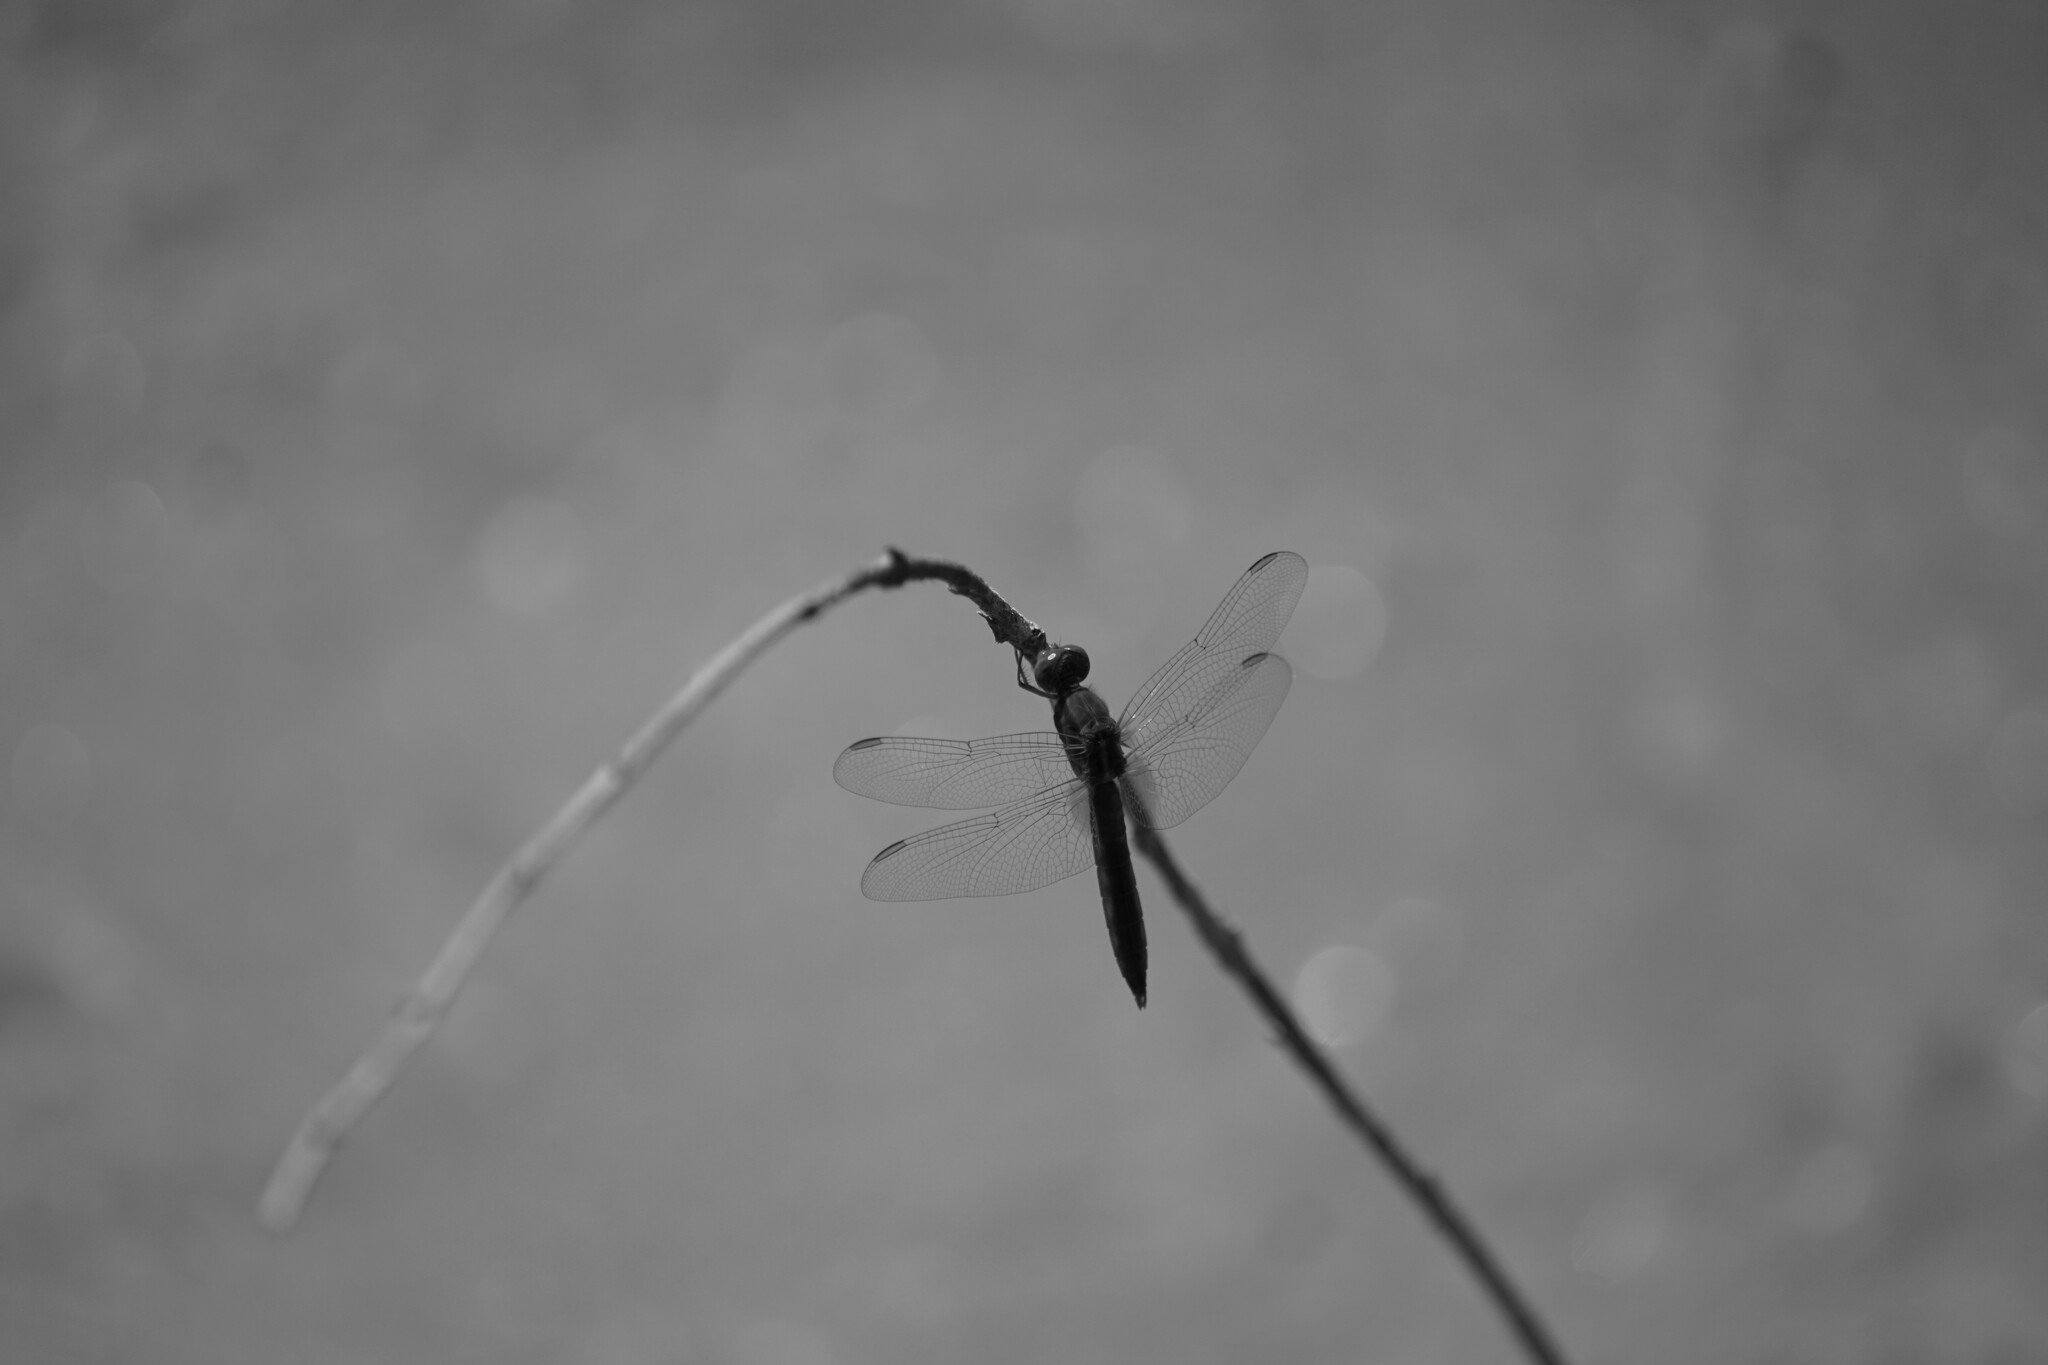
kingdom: Animalia
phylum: Arthropoda
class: Insecta
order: Odonata
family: Libellulidae
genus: Crocothemis
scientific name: Crocothemis erythraea
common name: Scarlet dragonfly
